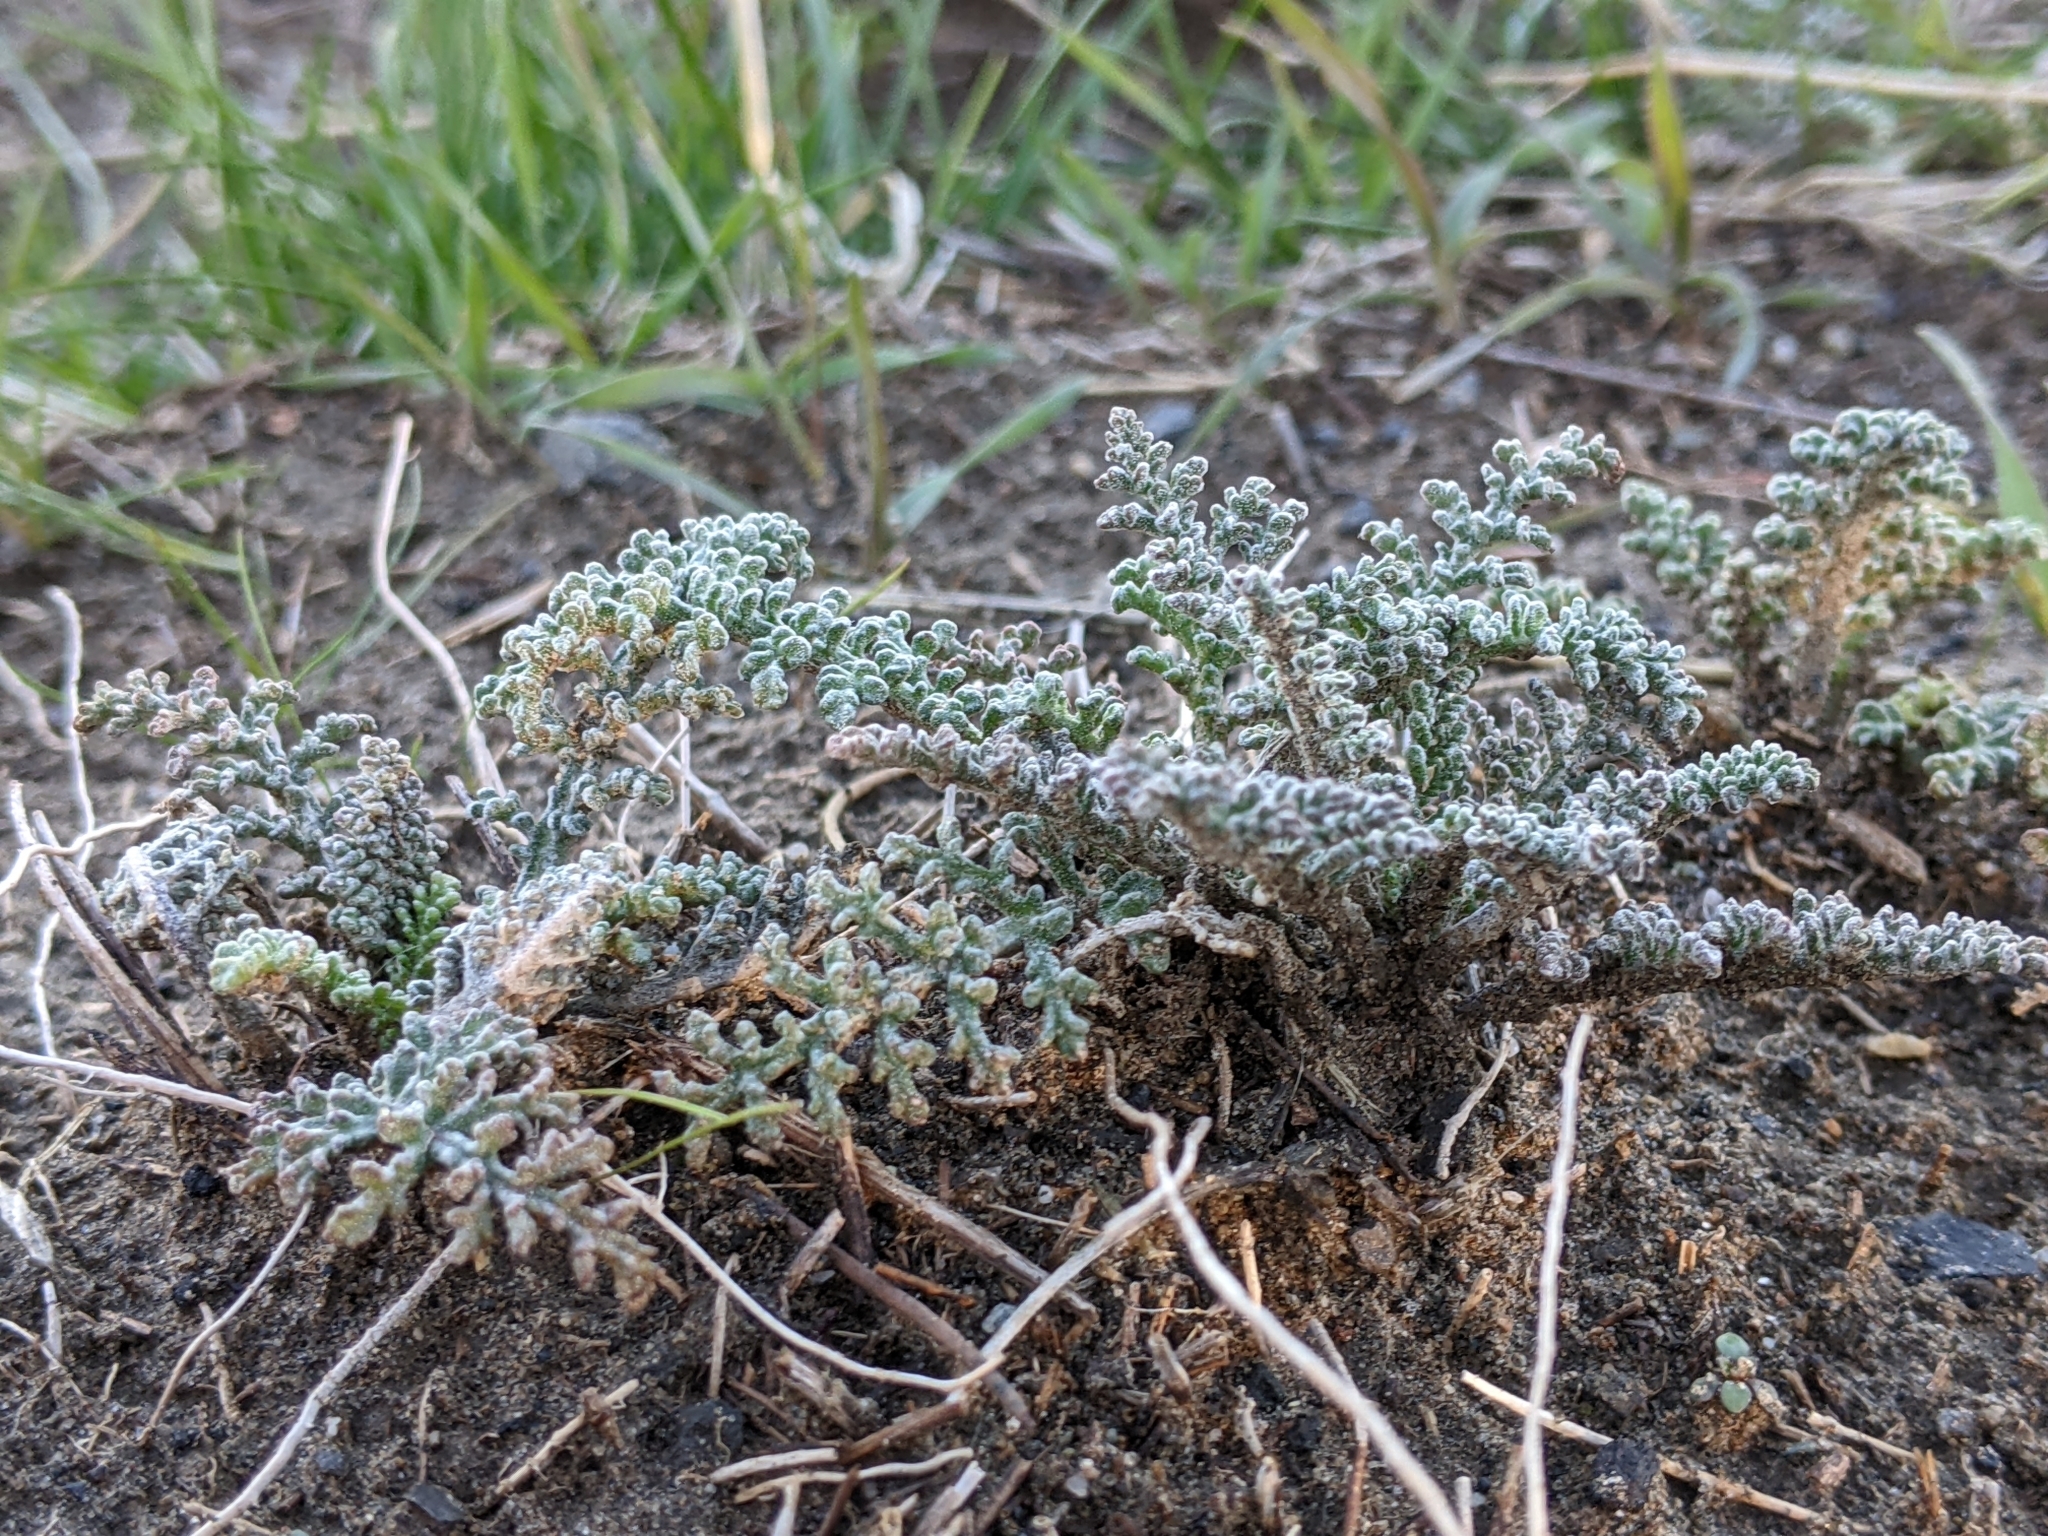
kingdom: Plantae
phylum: Tracheophyta
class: Magnoliopsida
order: Asterales
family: Asteraceae
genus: Chaenactis
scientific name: Chaenactis douglasii
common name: Hoary pincushion
